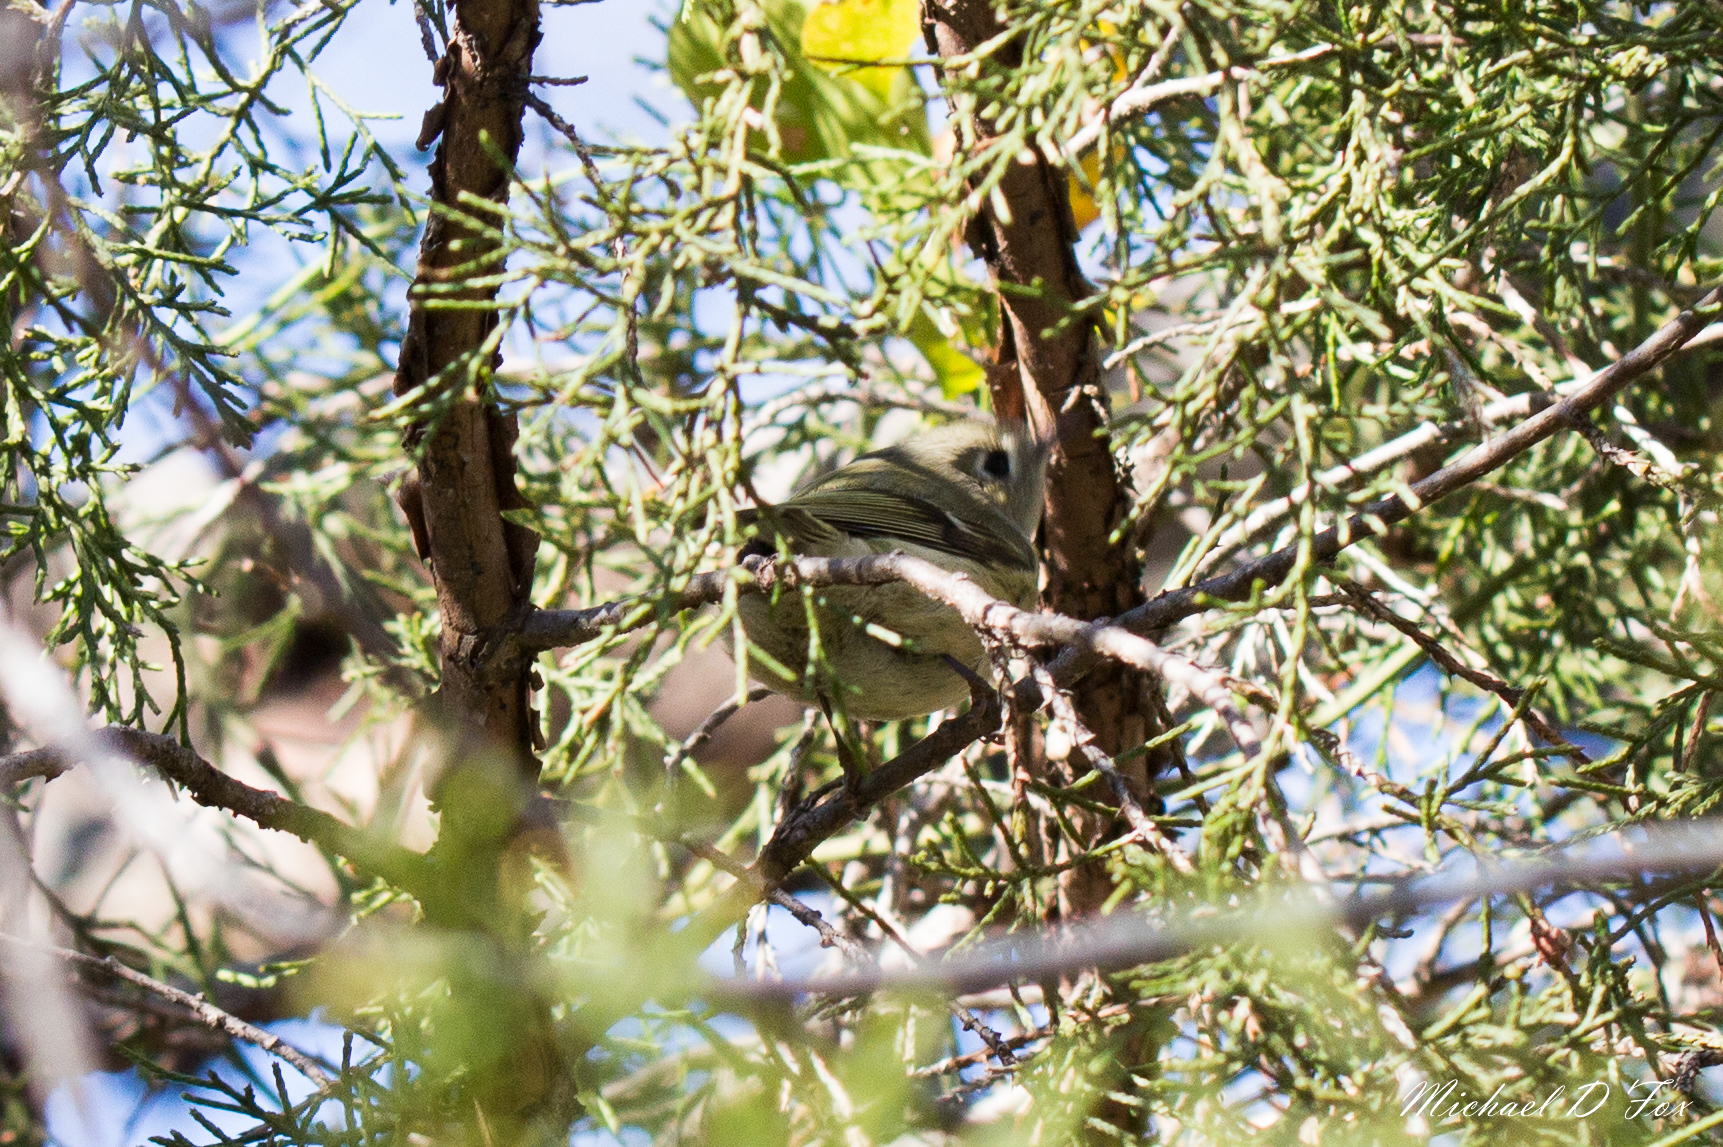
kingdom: Animalia
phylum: Chordata
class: Aves
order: Passeriformes
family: Regulidae
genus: Regulus
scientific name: Regulus calendula
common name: Ruby-crowned kinglet
